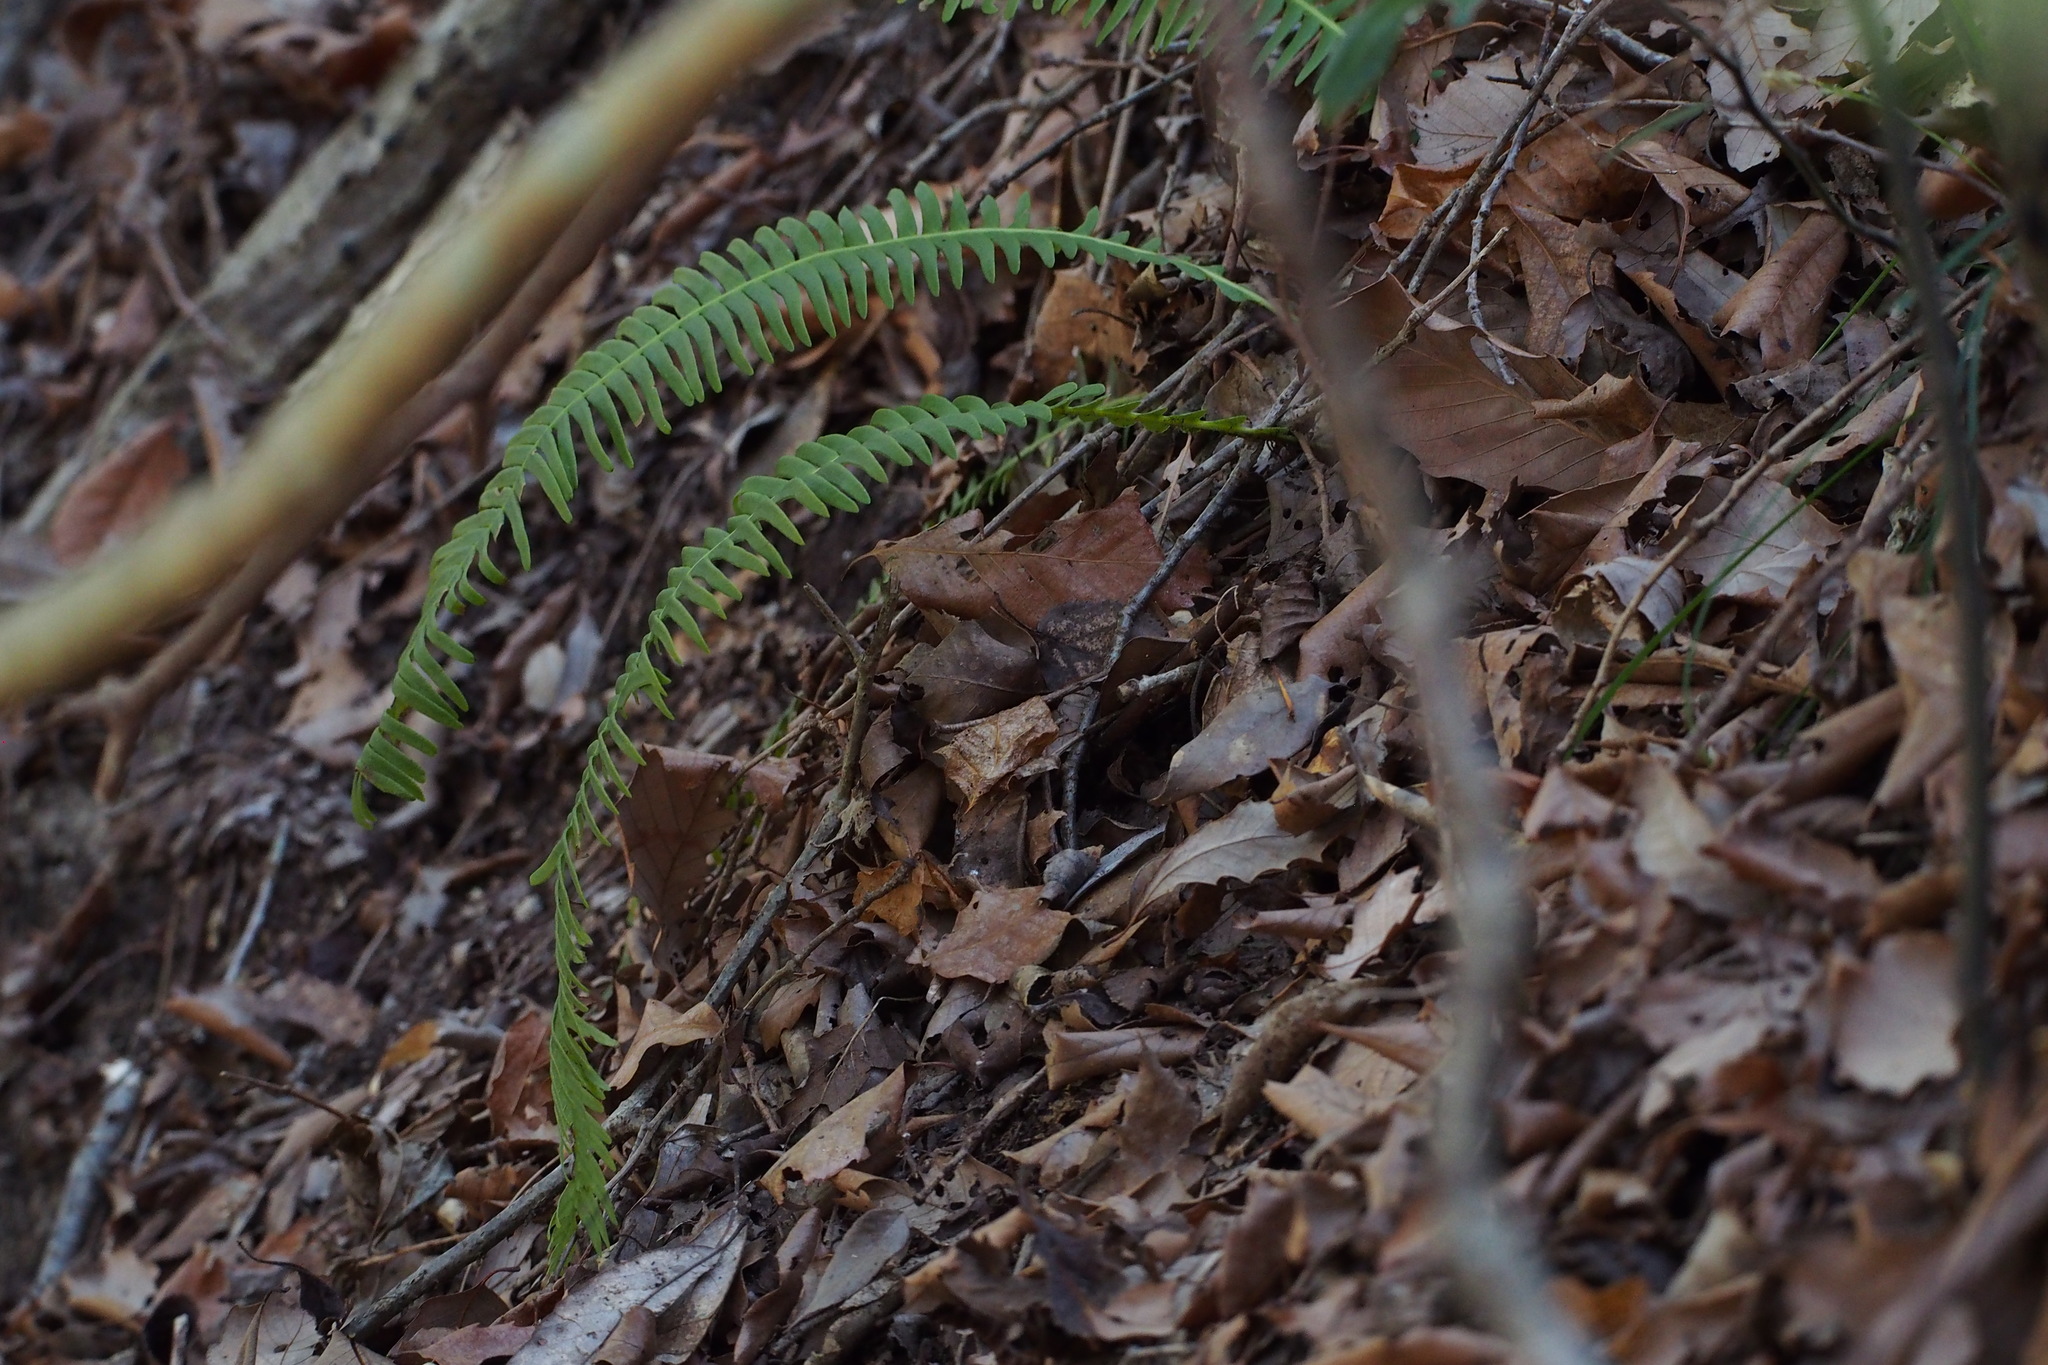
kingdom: Plantae
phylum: Tracheophyta
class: Polypodiopsida
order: Polypodiales
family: Blechnaceae
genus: Spicantopsis
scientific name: Spicantopsis niponica
